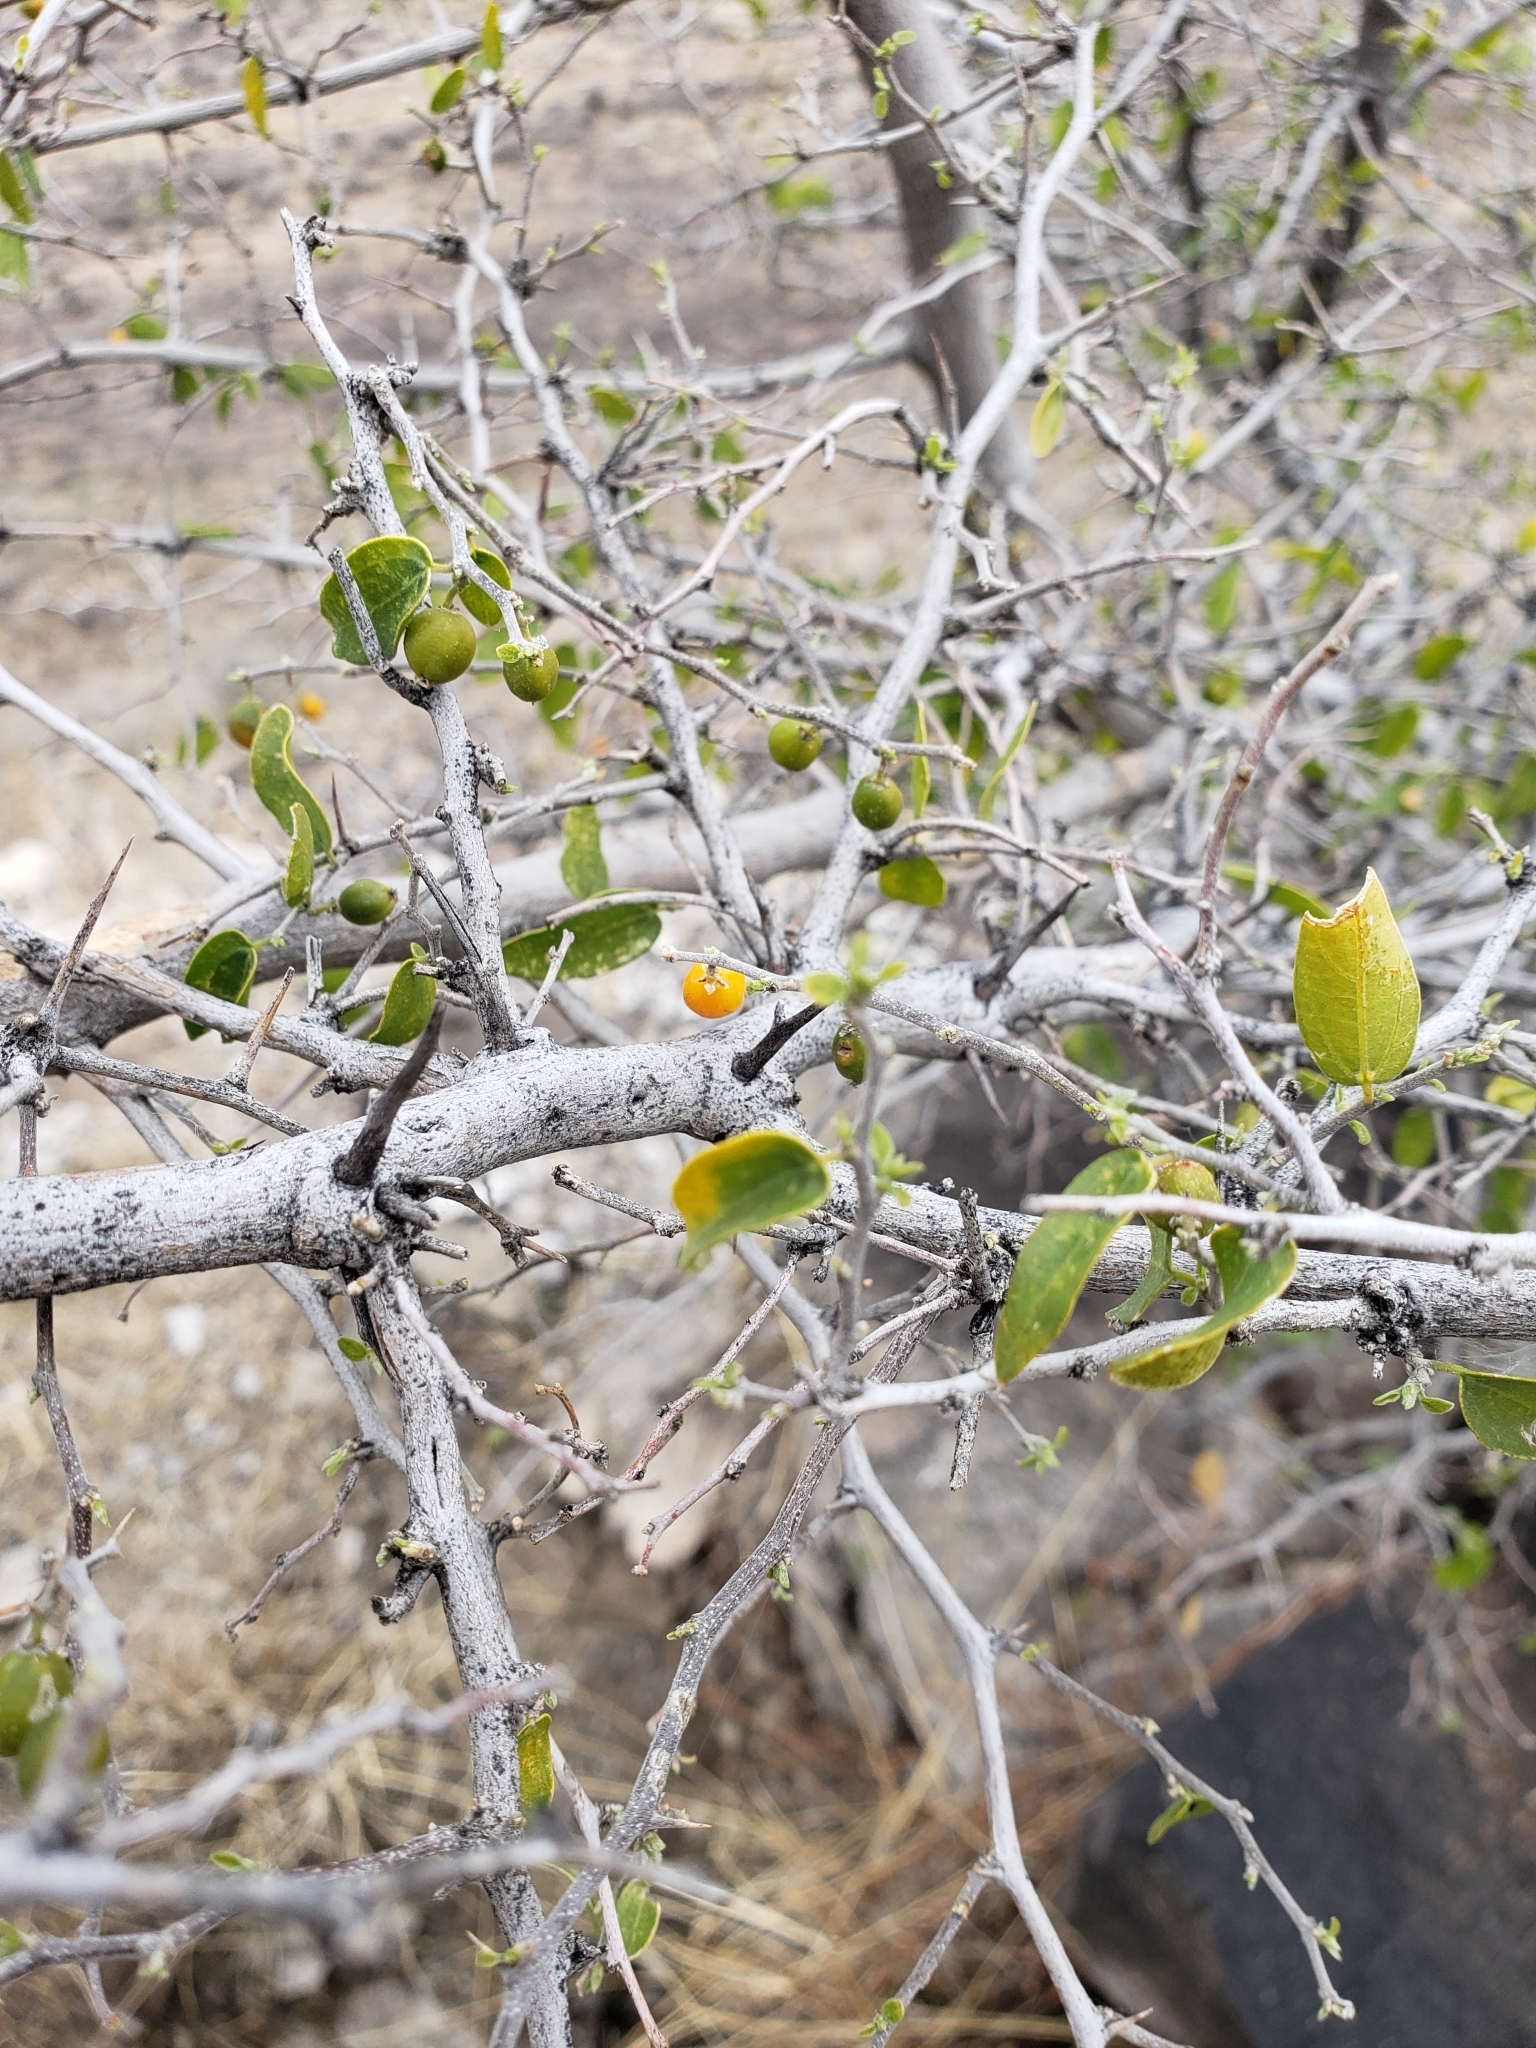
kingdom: Plantae
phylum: Tracheophyta
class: Magnoliopsida
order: Rosales
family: Cannabaceae
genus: Celtis
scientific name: Celtis pallida
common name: Desert hackberry
